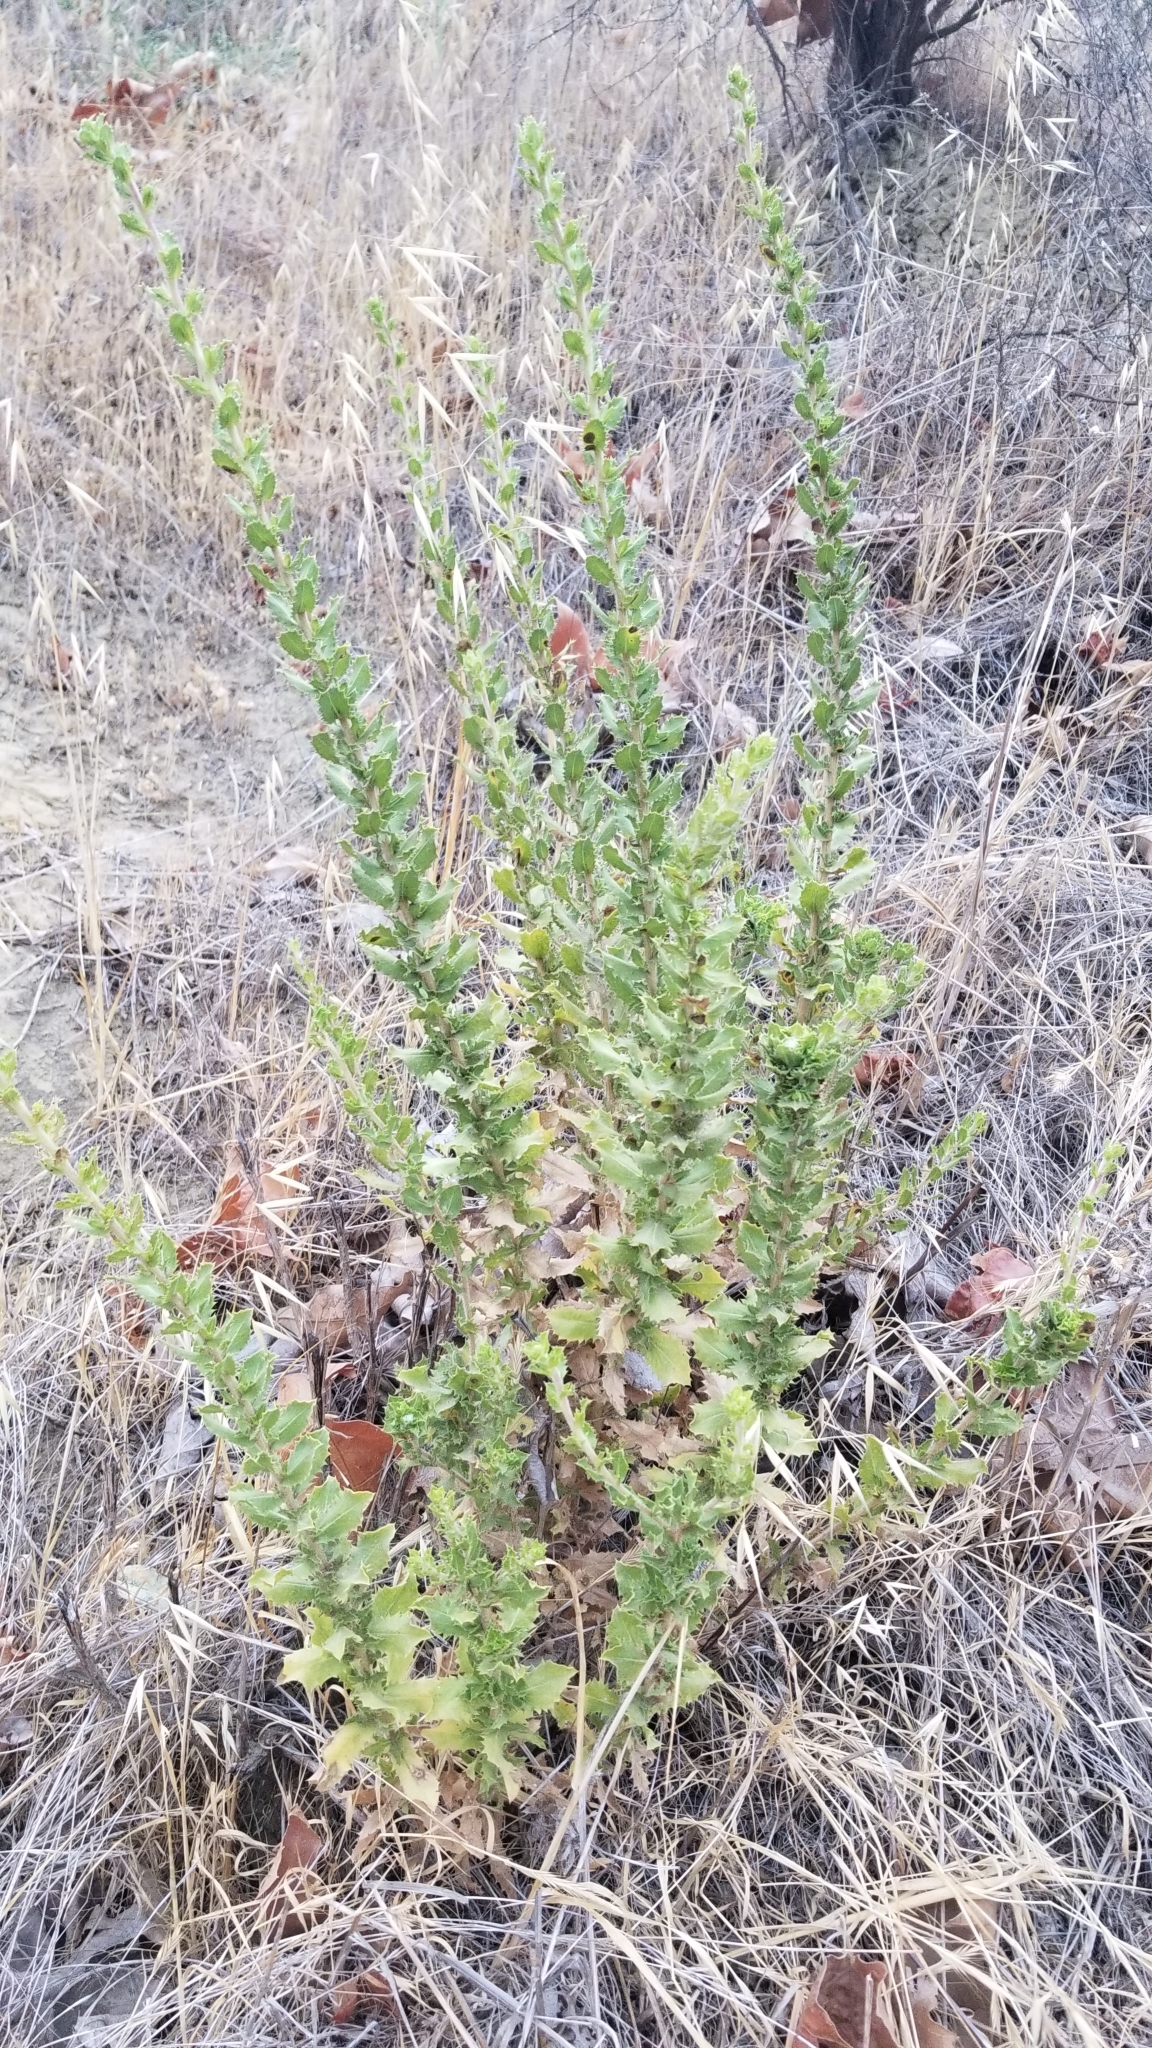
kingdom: Plantae
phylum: Tracheophyta
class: Magnoliopsida
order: Asterales
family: Asteraceae
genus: Hazardia
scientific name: Hazardia squarrosa
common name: Saw-tooth goldenbush
